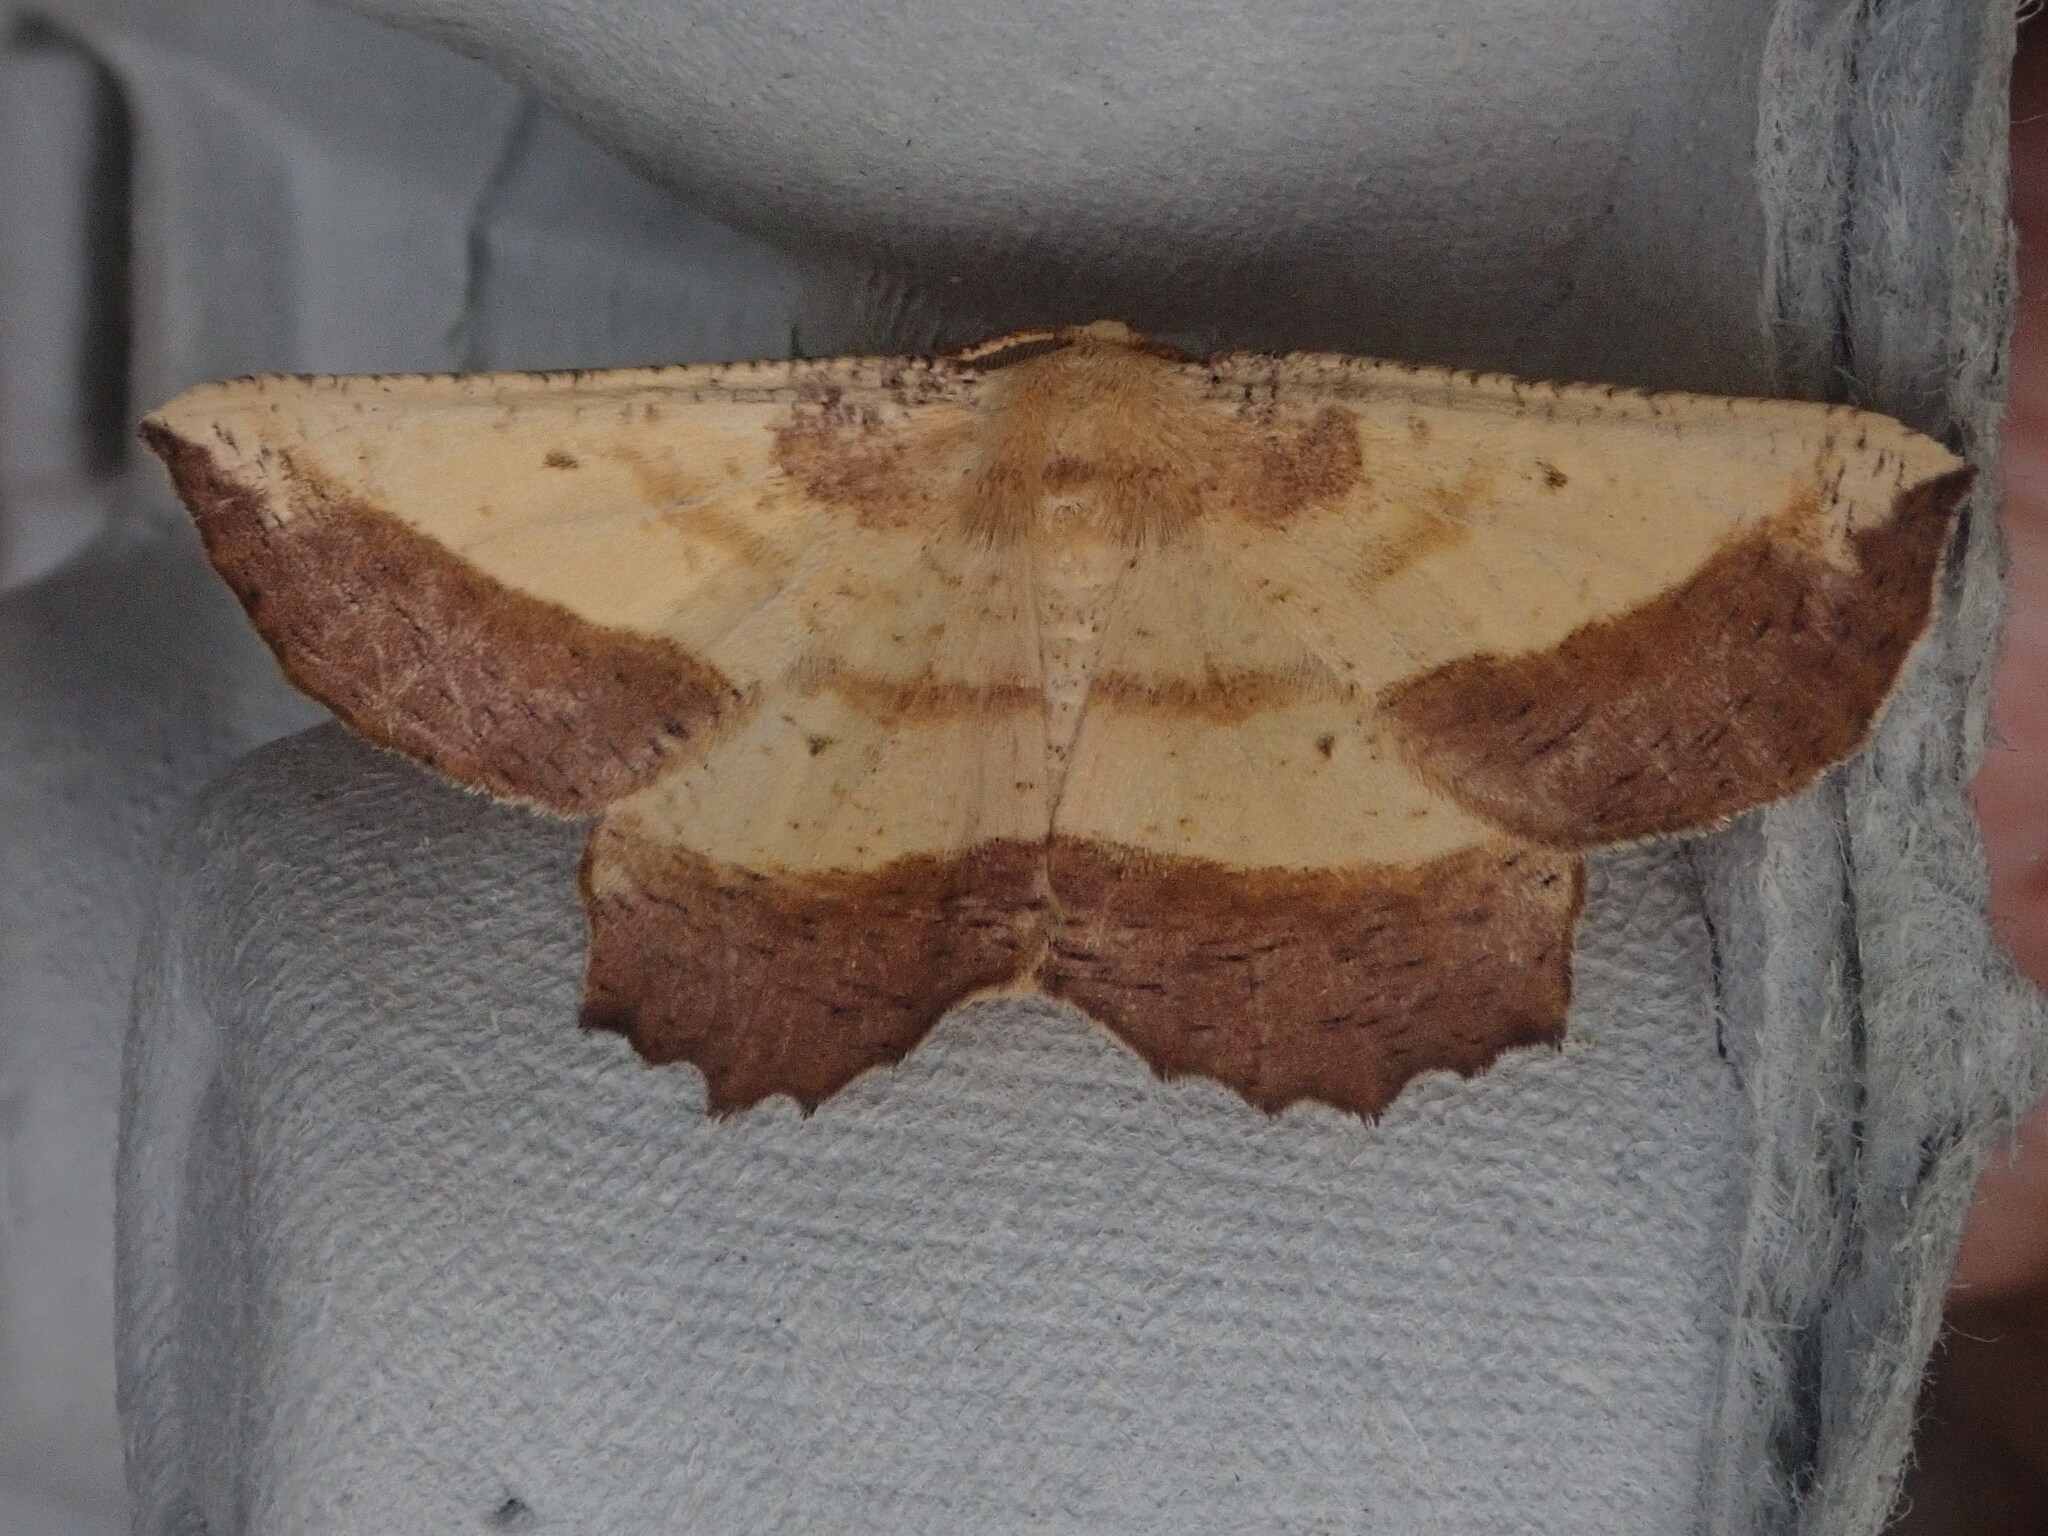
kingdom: Animalia
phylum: Arthropoda
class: Insecta
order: Lepidoptera
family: Geometridae
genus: Euchlaena
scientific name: Euchlaena serrata
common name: Saw wing
